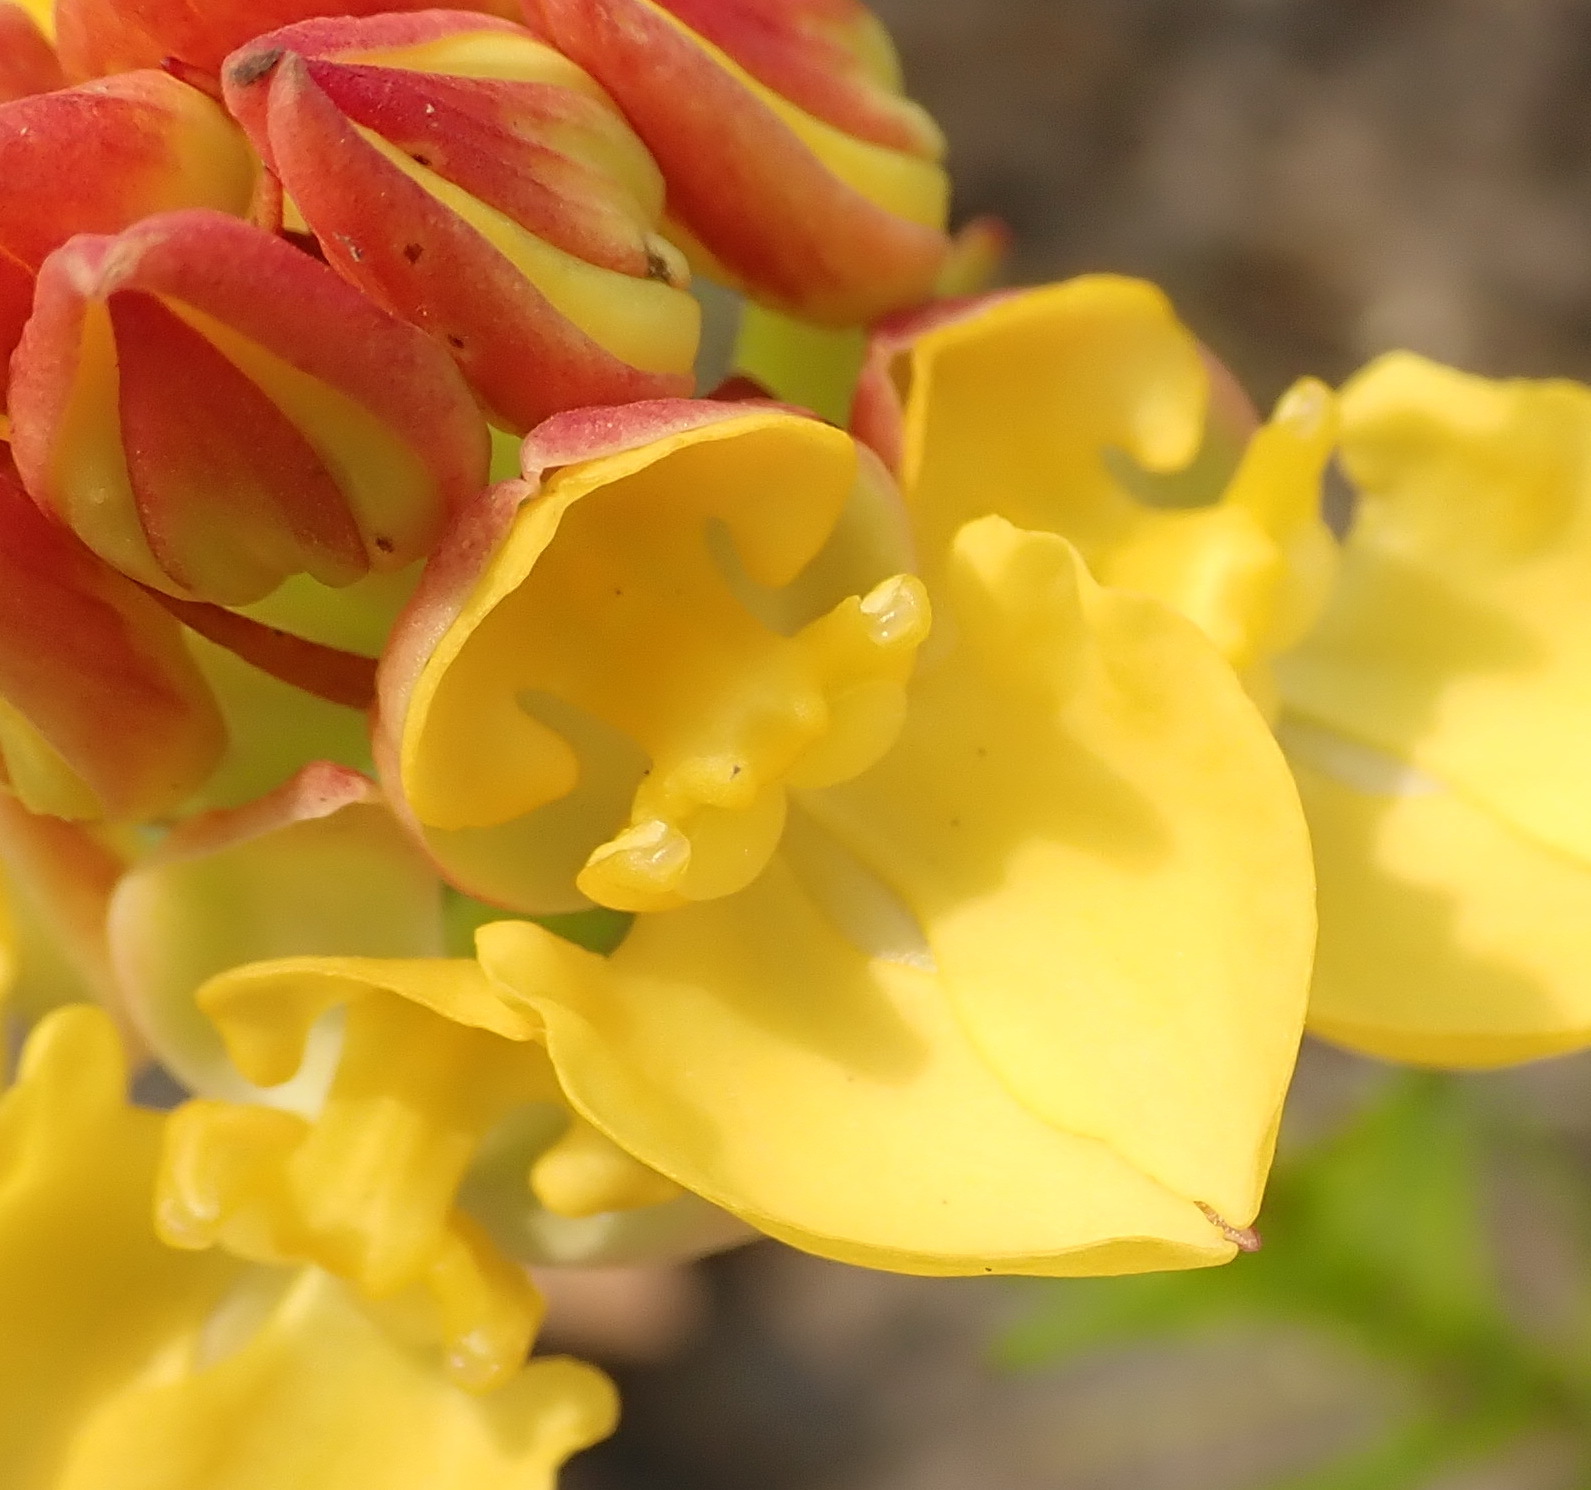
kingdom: Plantae
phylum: Tracheophyta
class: Liliopsida
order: Asparagales
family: Orchidaceae
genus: Ceratandra
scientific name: Ceratandra grandiflora
